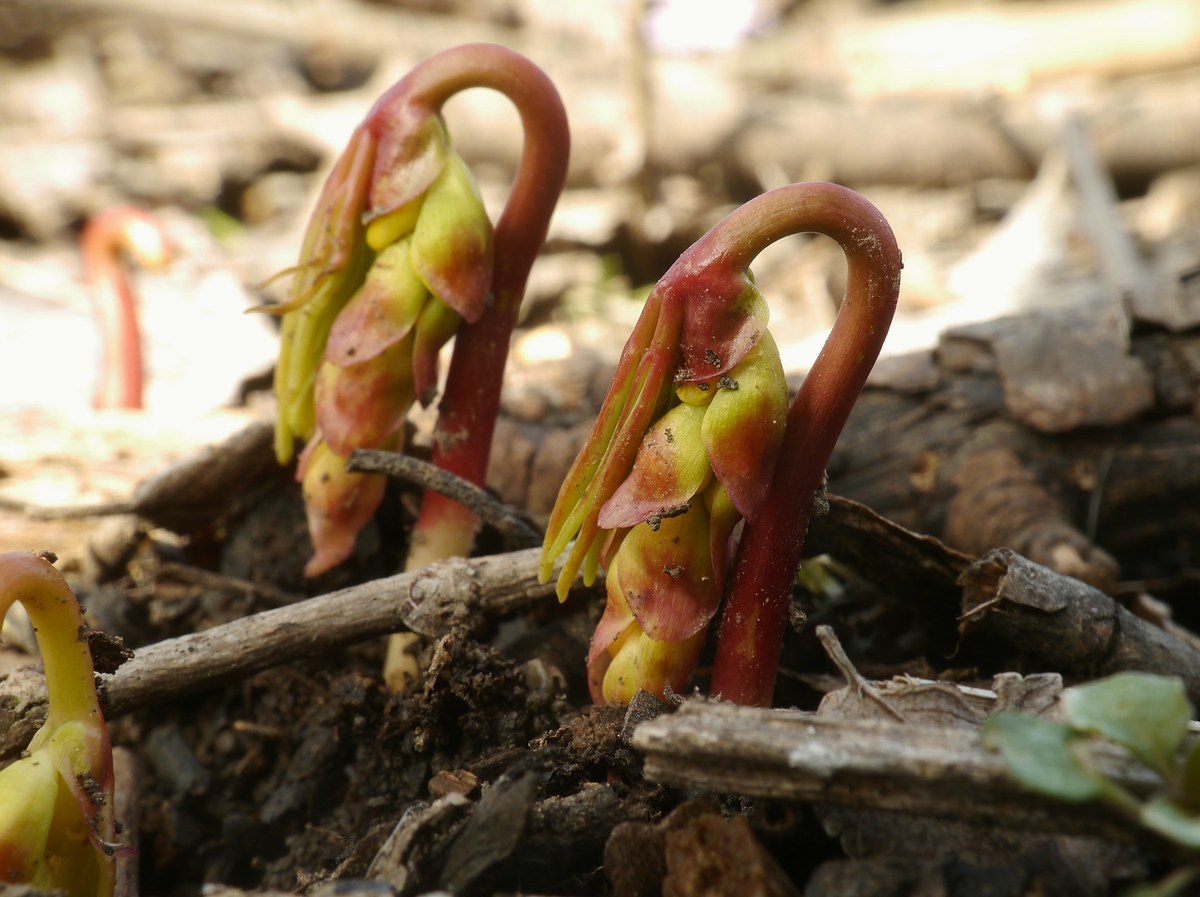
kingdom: Plantae
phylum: Tracheophyta
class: Magnoliopsida
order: Ranunculales
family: Berberidaceae
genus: Gymnospermium
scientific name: Gymnospermium odessanum
